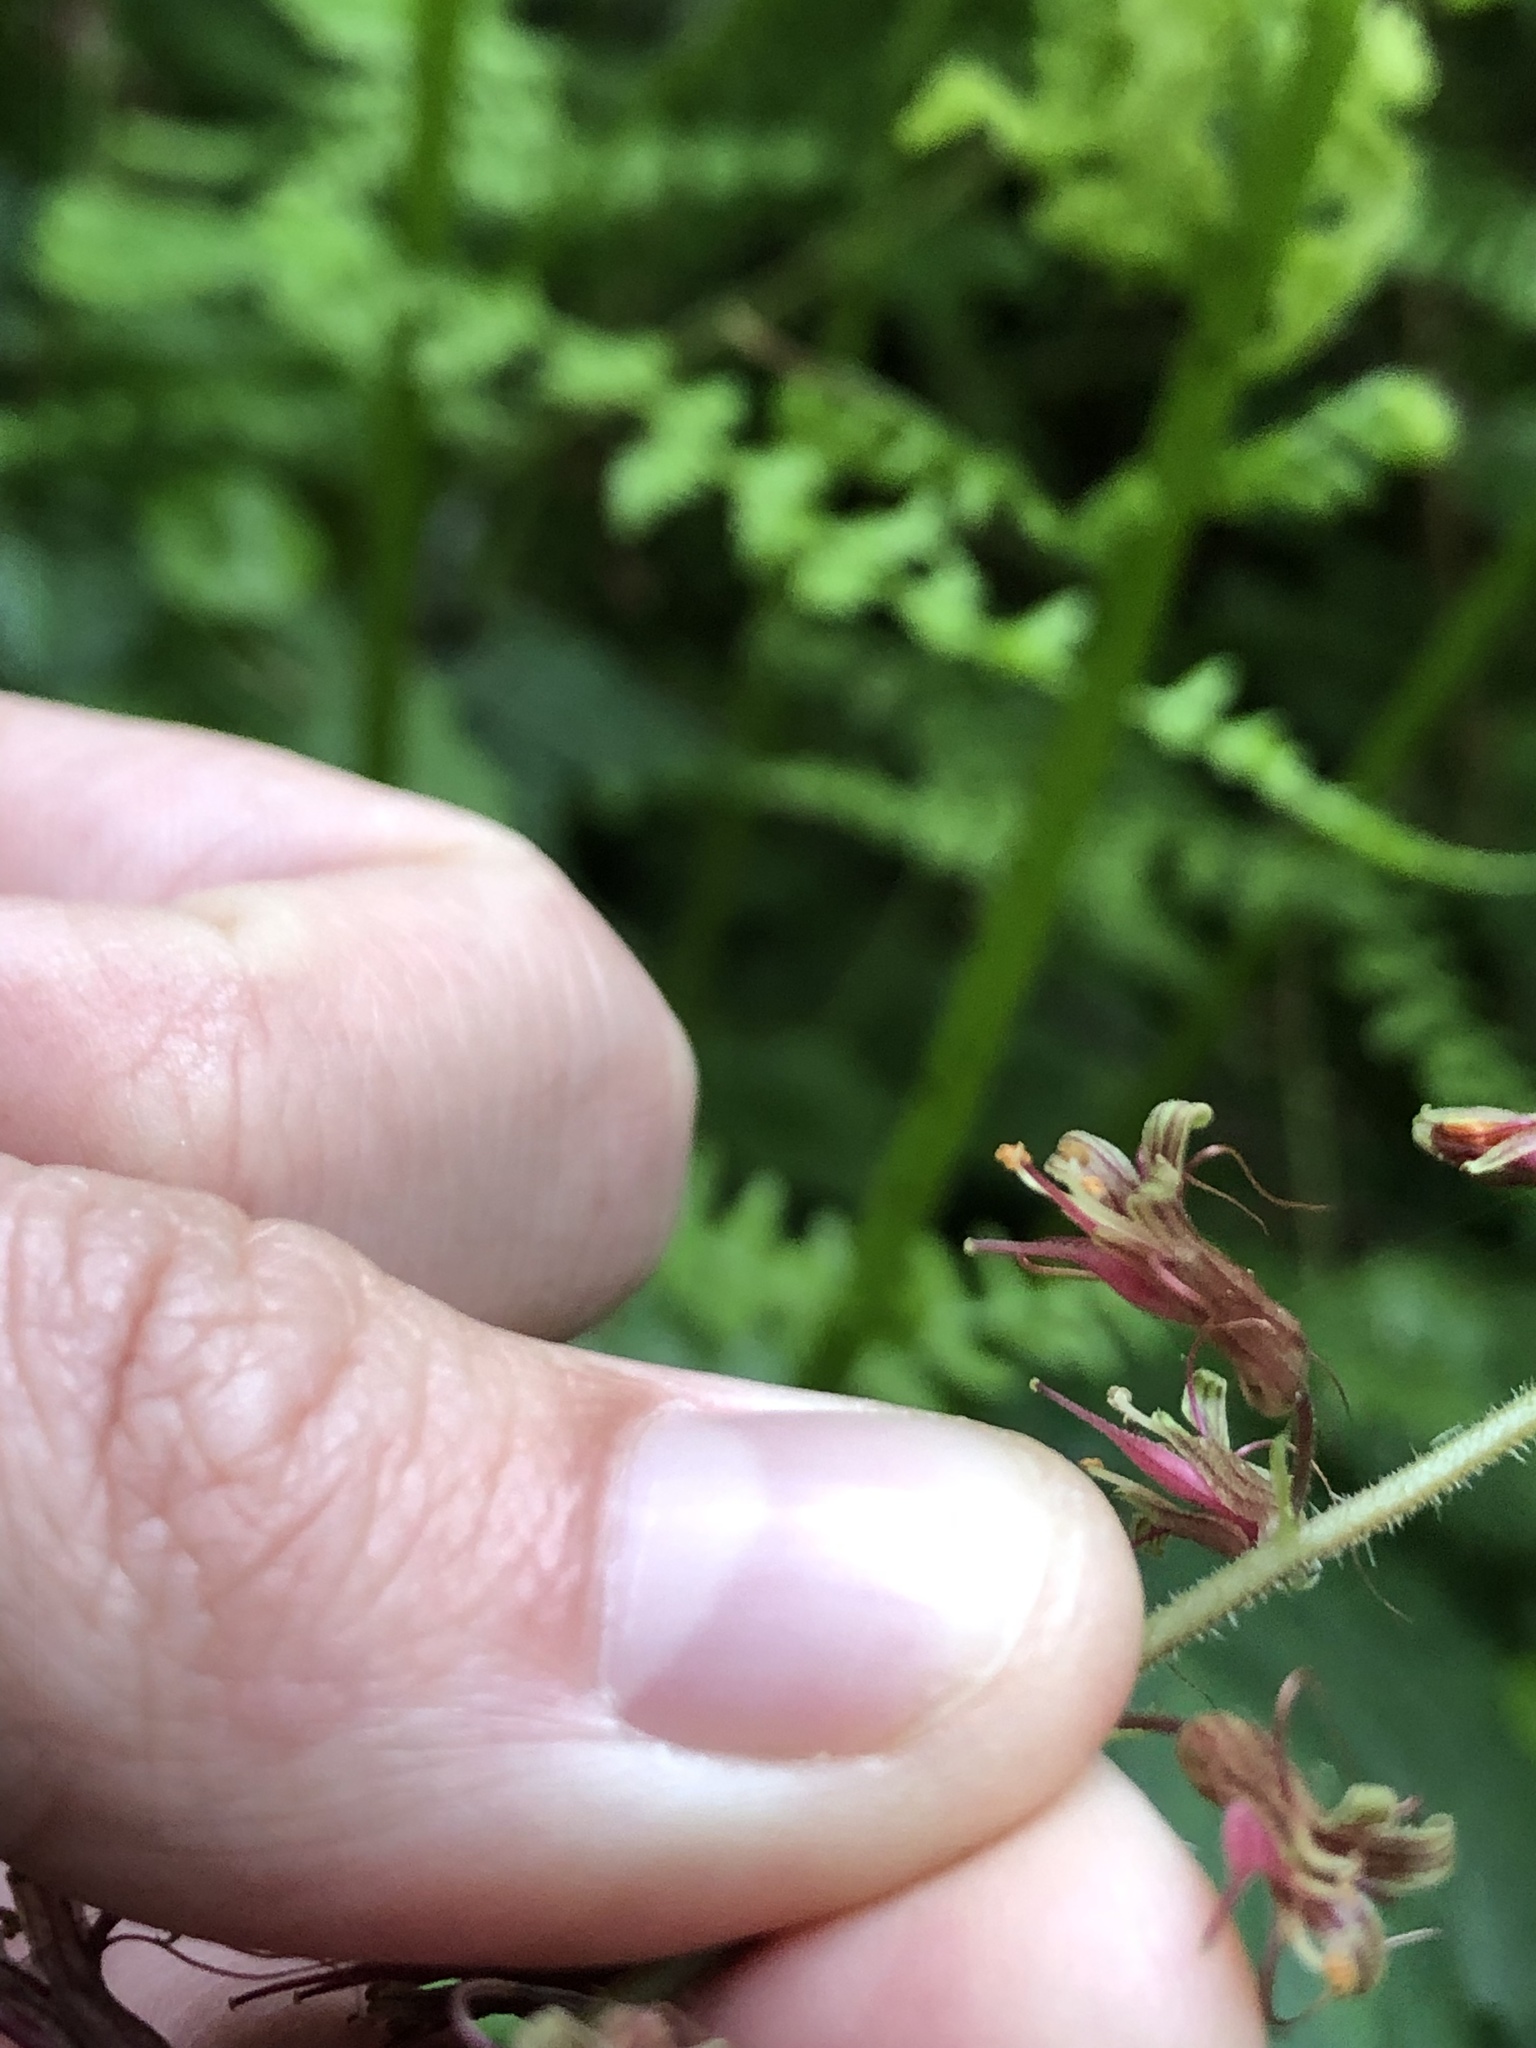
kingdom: Plantae
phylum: Tracheophyta
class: Magnoliopsida
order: Saxifragales
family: Saxifragaceae
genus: Tolmiea
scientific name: Tolmiea diplomenziesii
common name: Youth on age
